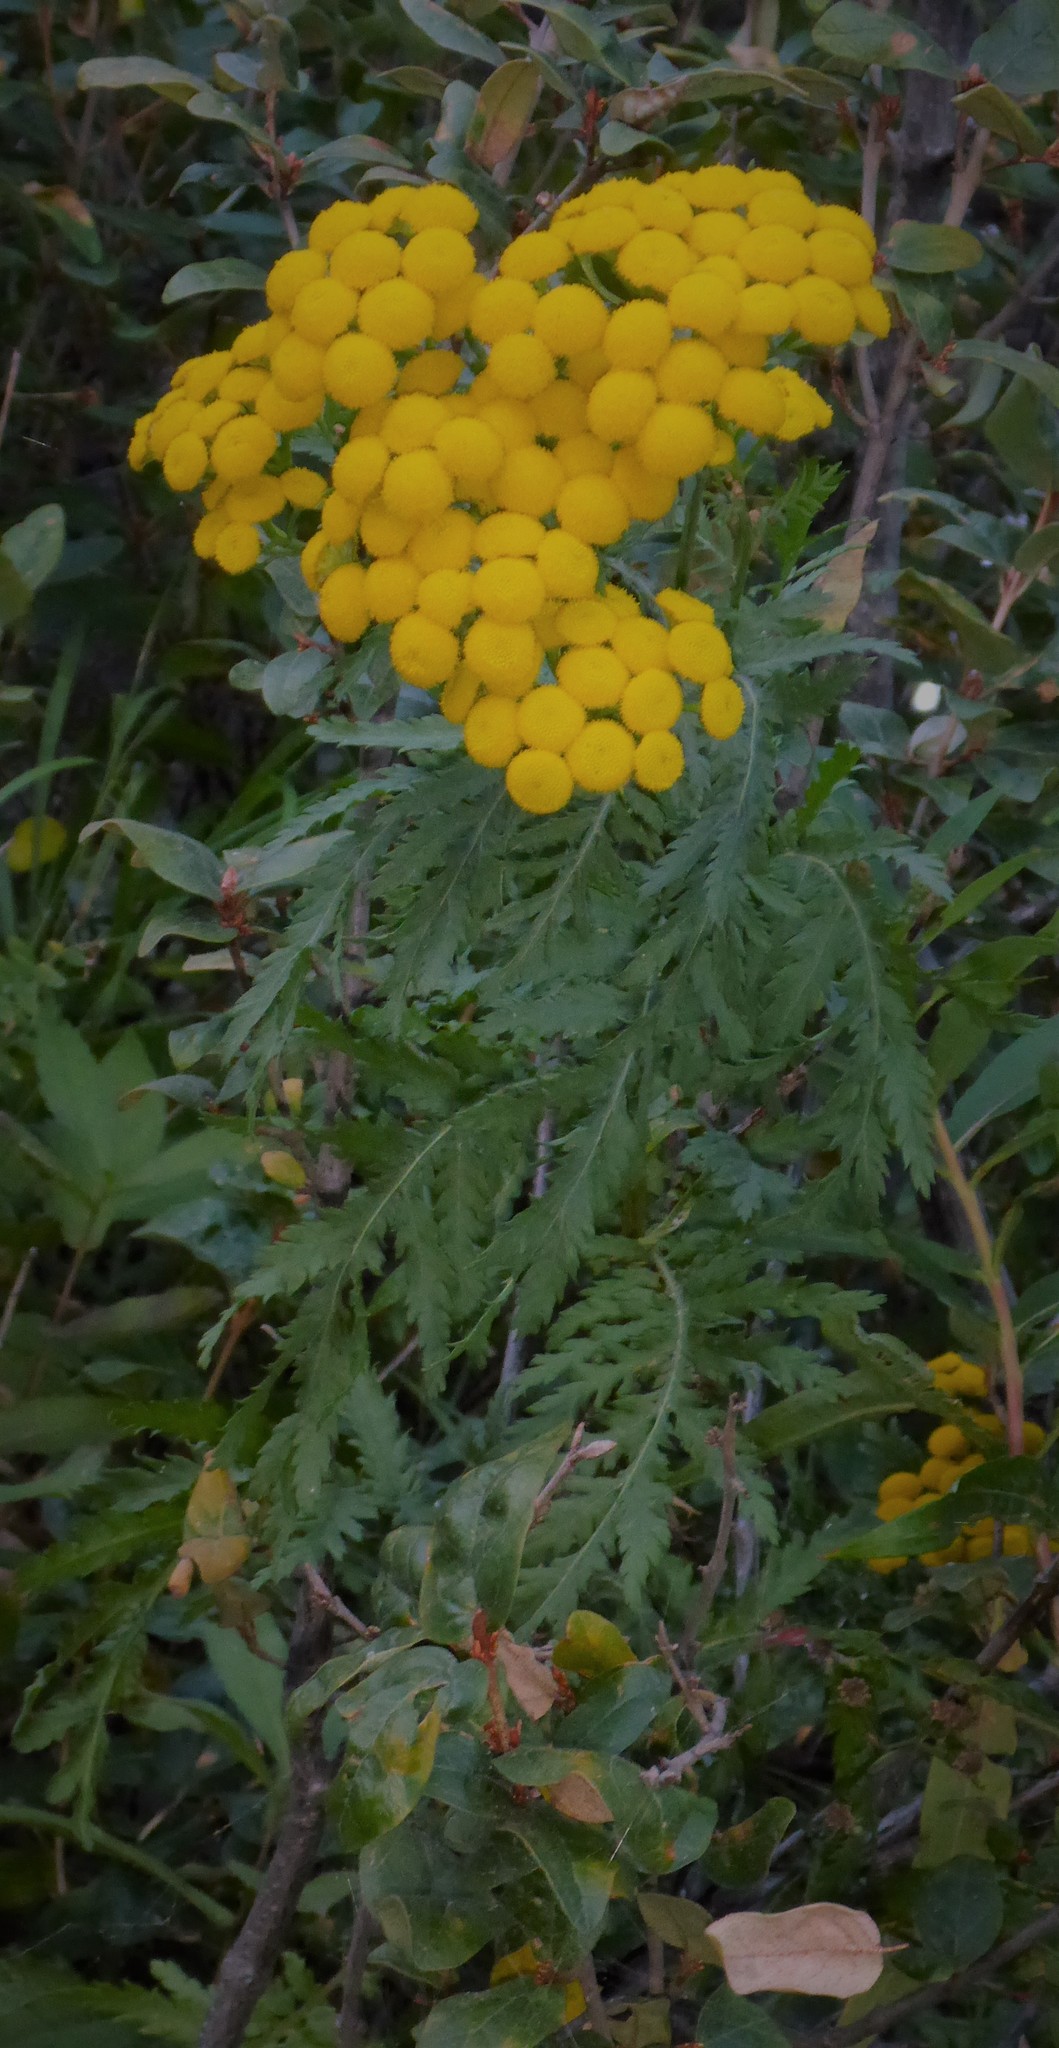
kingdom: Plantae
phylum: Tracheophyta
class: Magnoliopsida
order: Asterales
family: Asteraceae
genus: Tanacetum
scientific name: Tanacetum vulgare
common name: Common tansy
